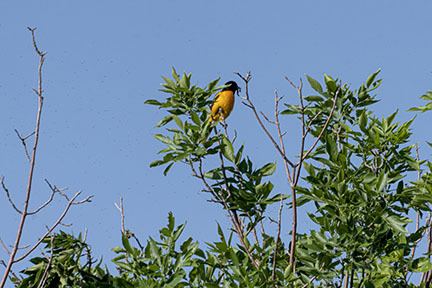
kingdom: Animalia
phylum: Chordata
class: Aves
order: Passeriformes
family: Icteridae
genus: Icterus
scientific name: Icterus galbula
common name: Baltimore oriole
